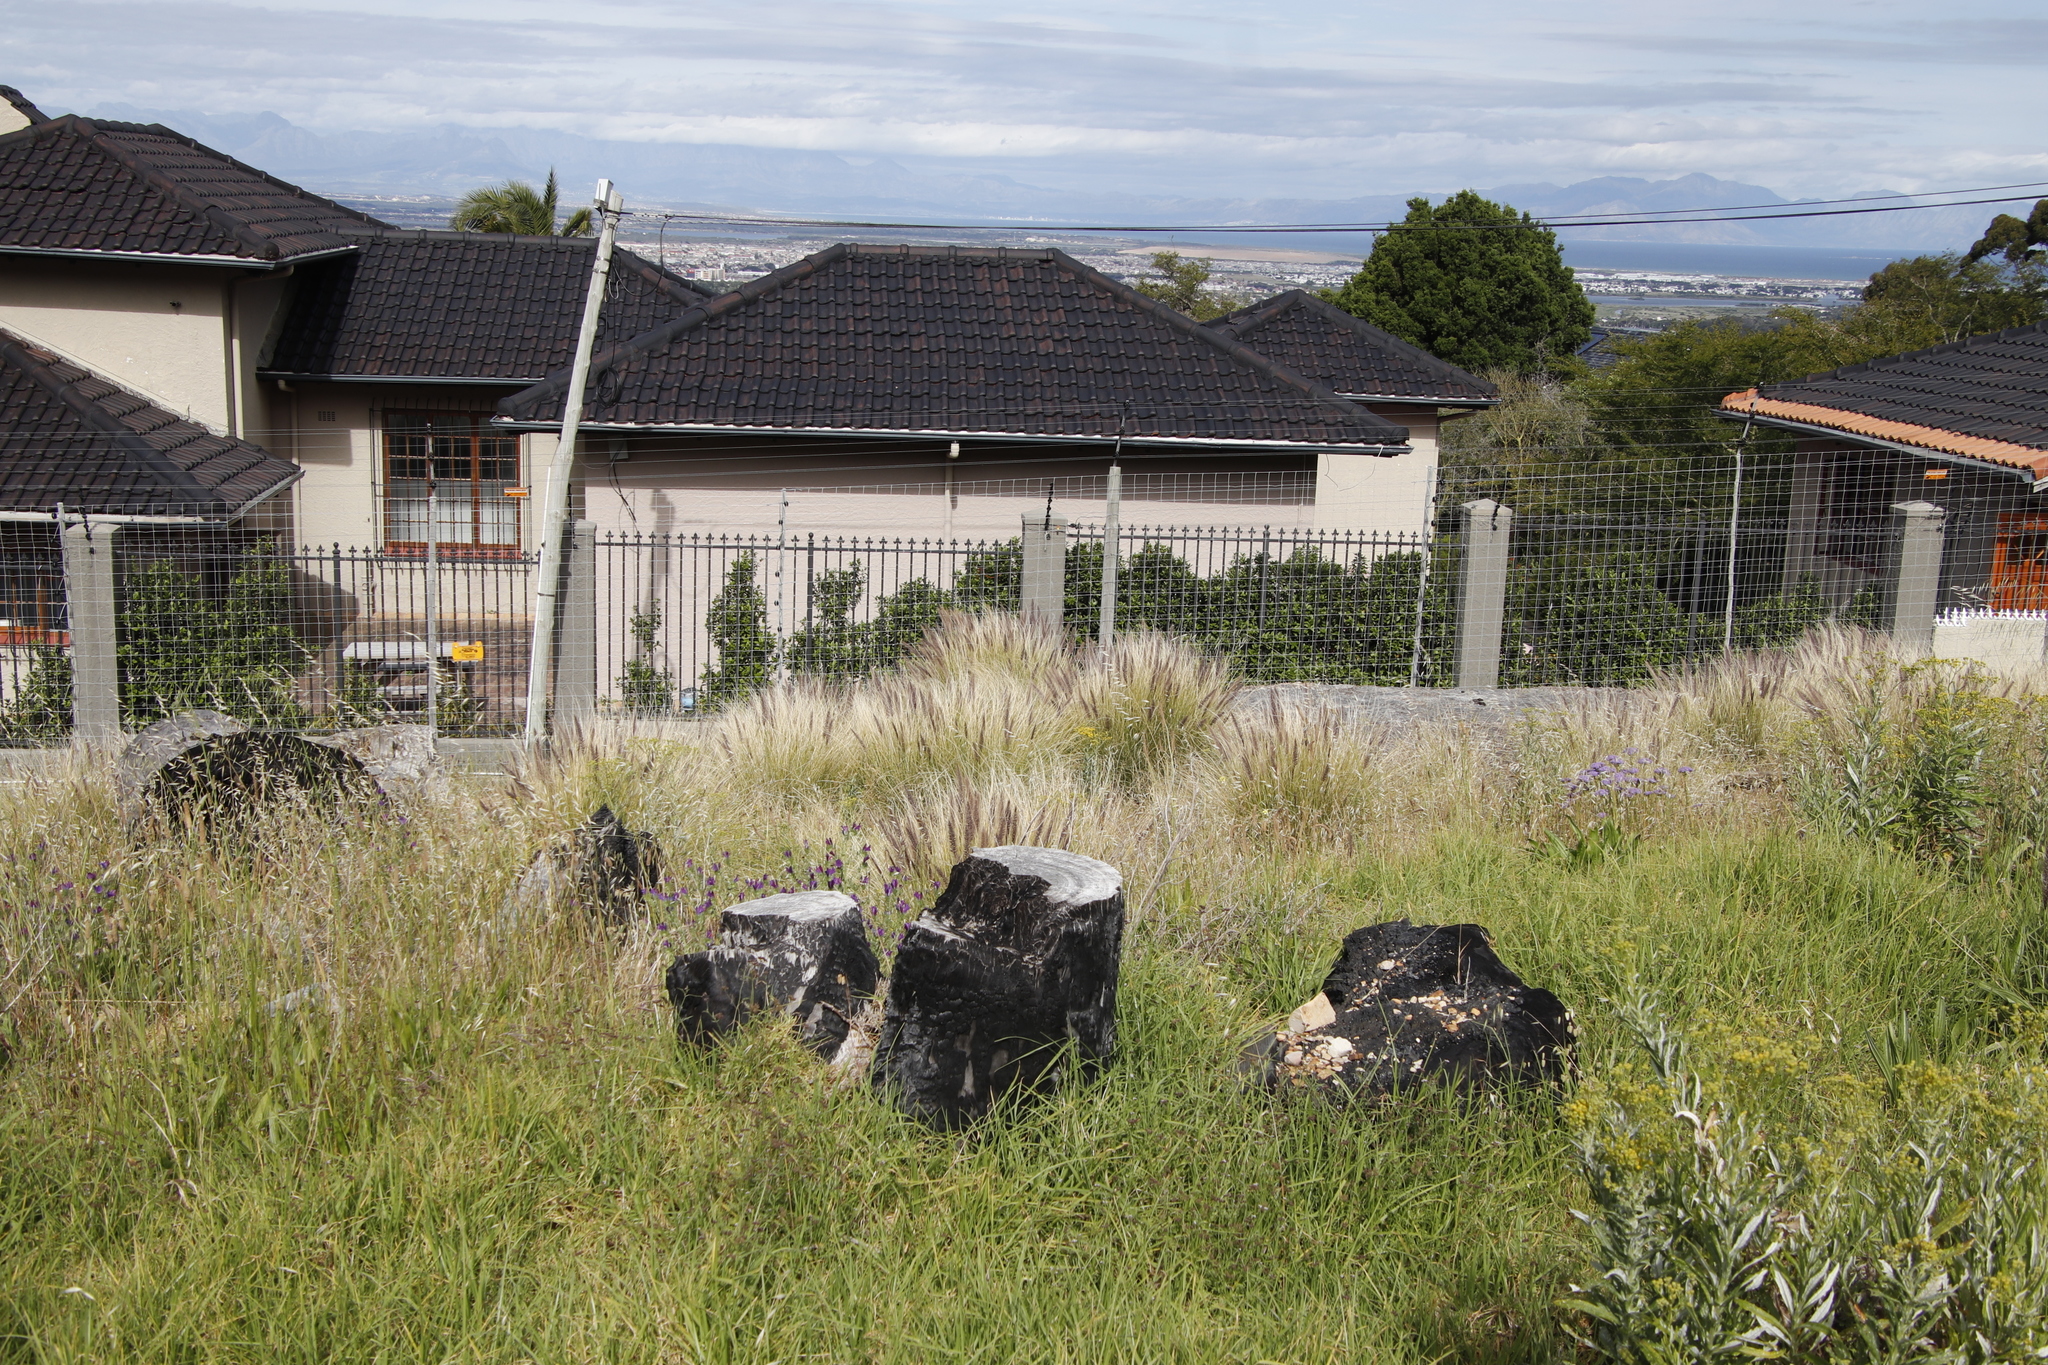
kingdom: Plantae
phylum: Tracheophyta
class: Liliopsida
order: Poales
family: Poaceae
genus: Cenchrus
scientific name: Cenchrus setaceus
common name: Crimson fountaingrass
